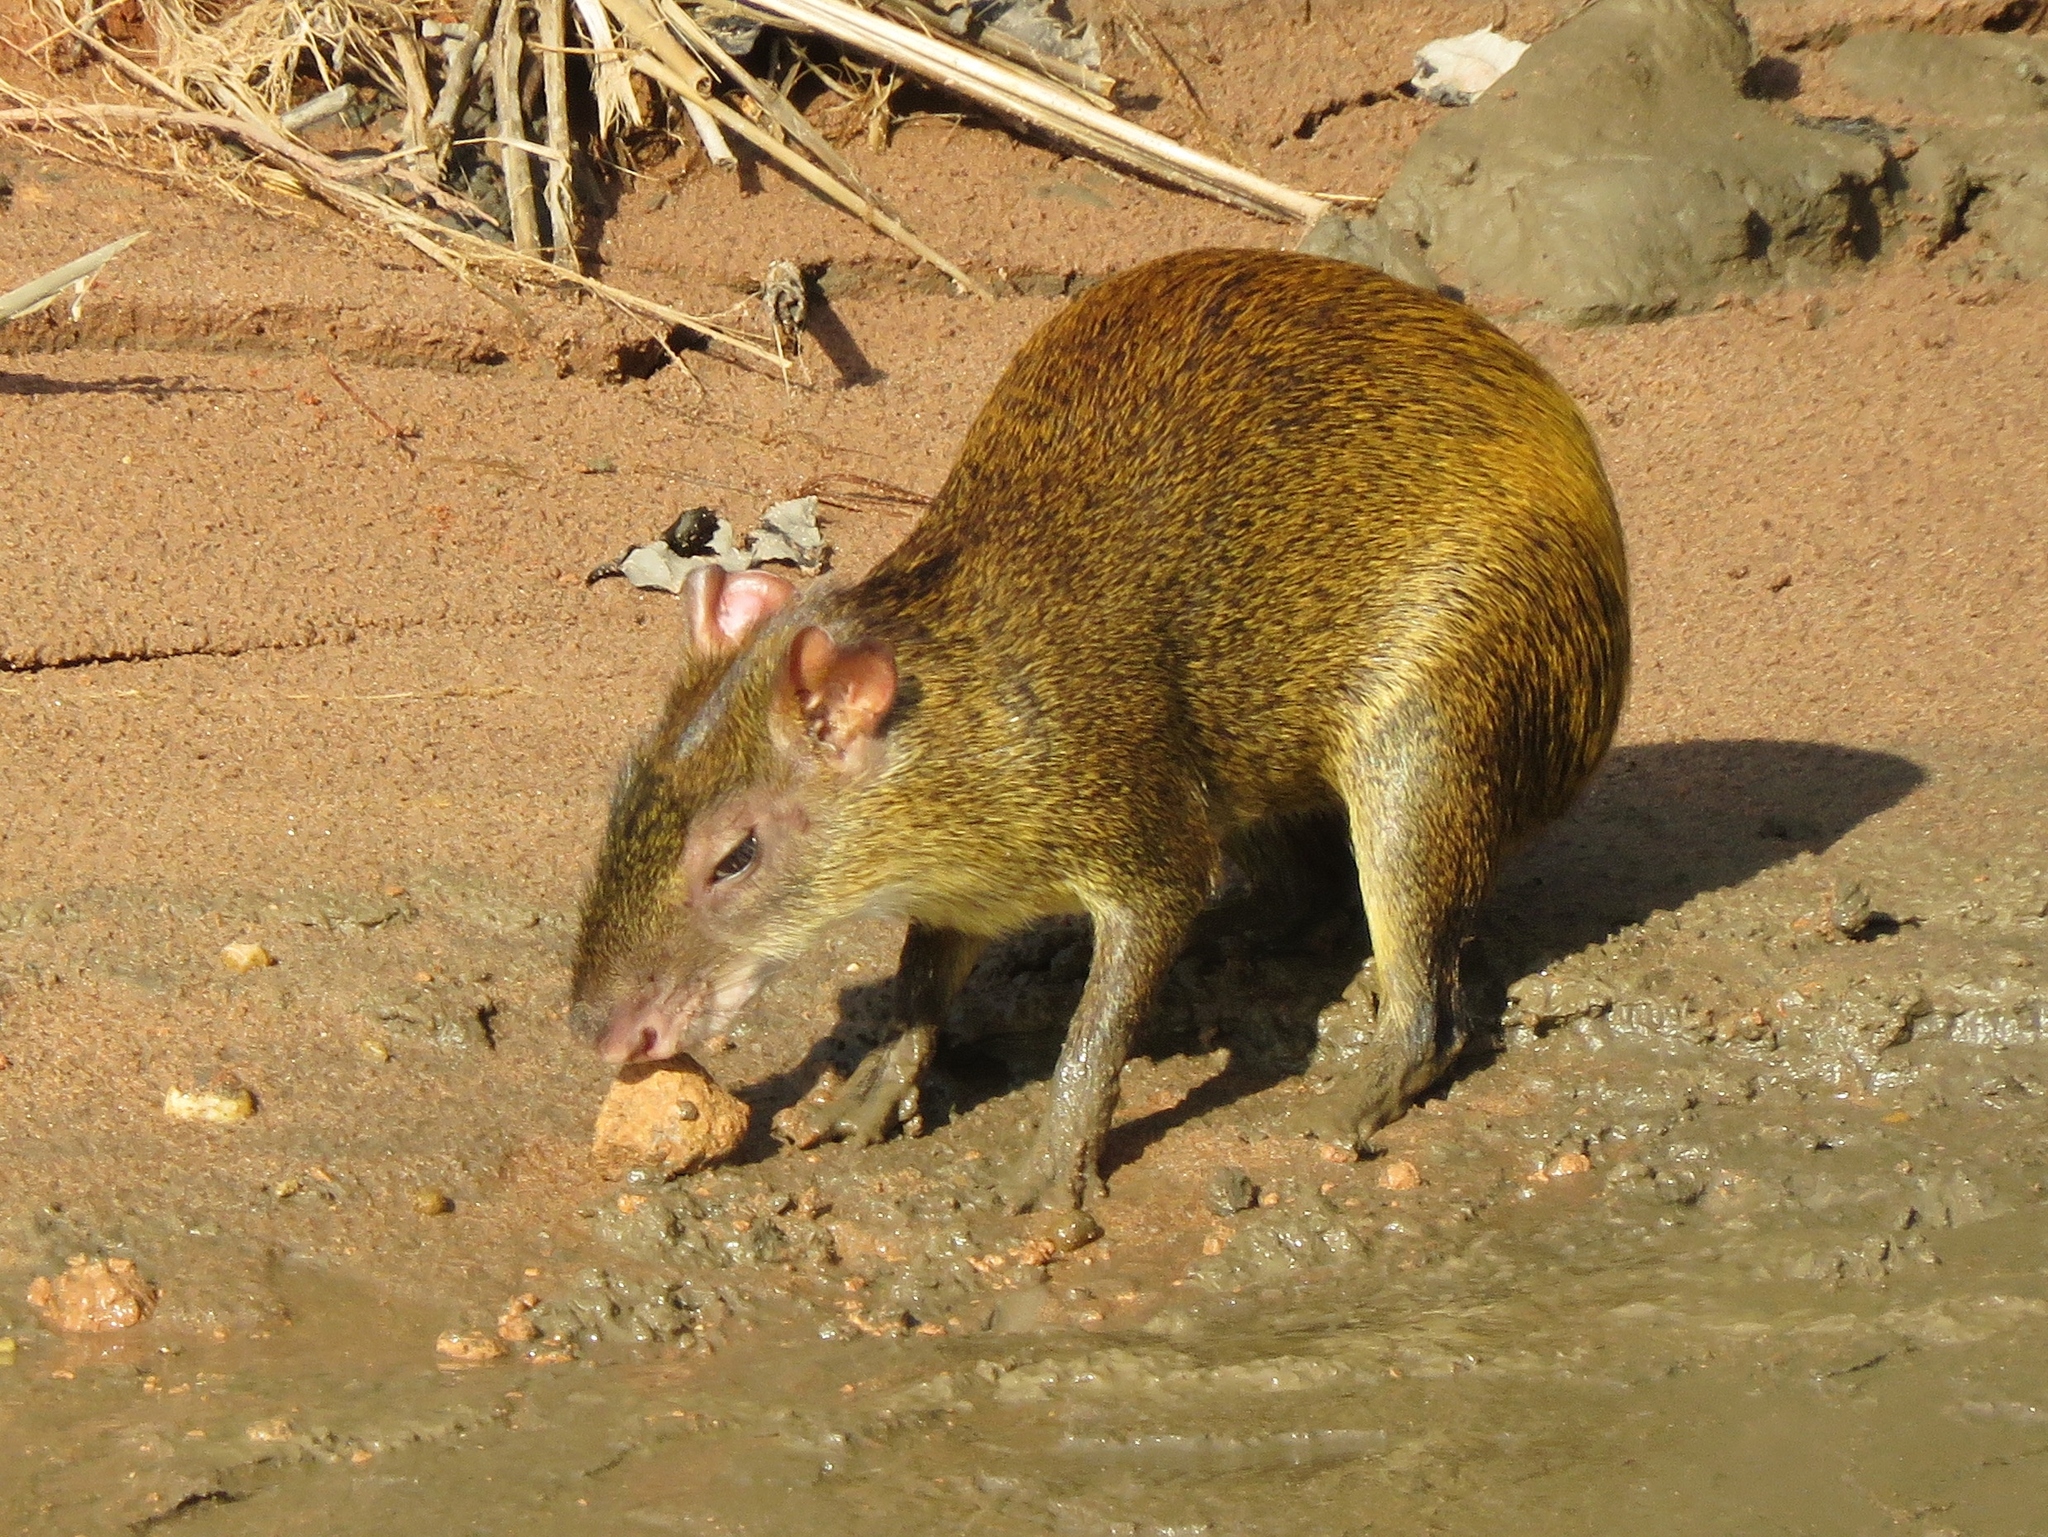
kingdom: Animalia
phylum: Chordata
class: Mammalia
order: Rodentia
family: Dasyproctidae
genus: Dasyprocta
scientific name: Dasyprocta variegata
